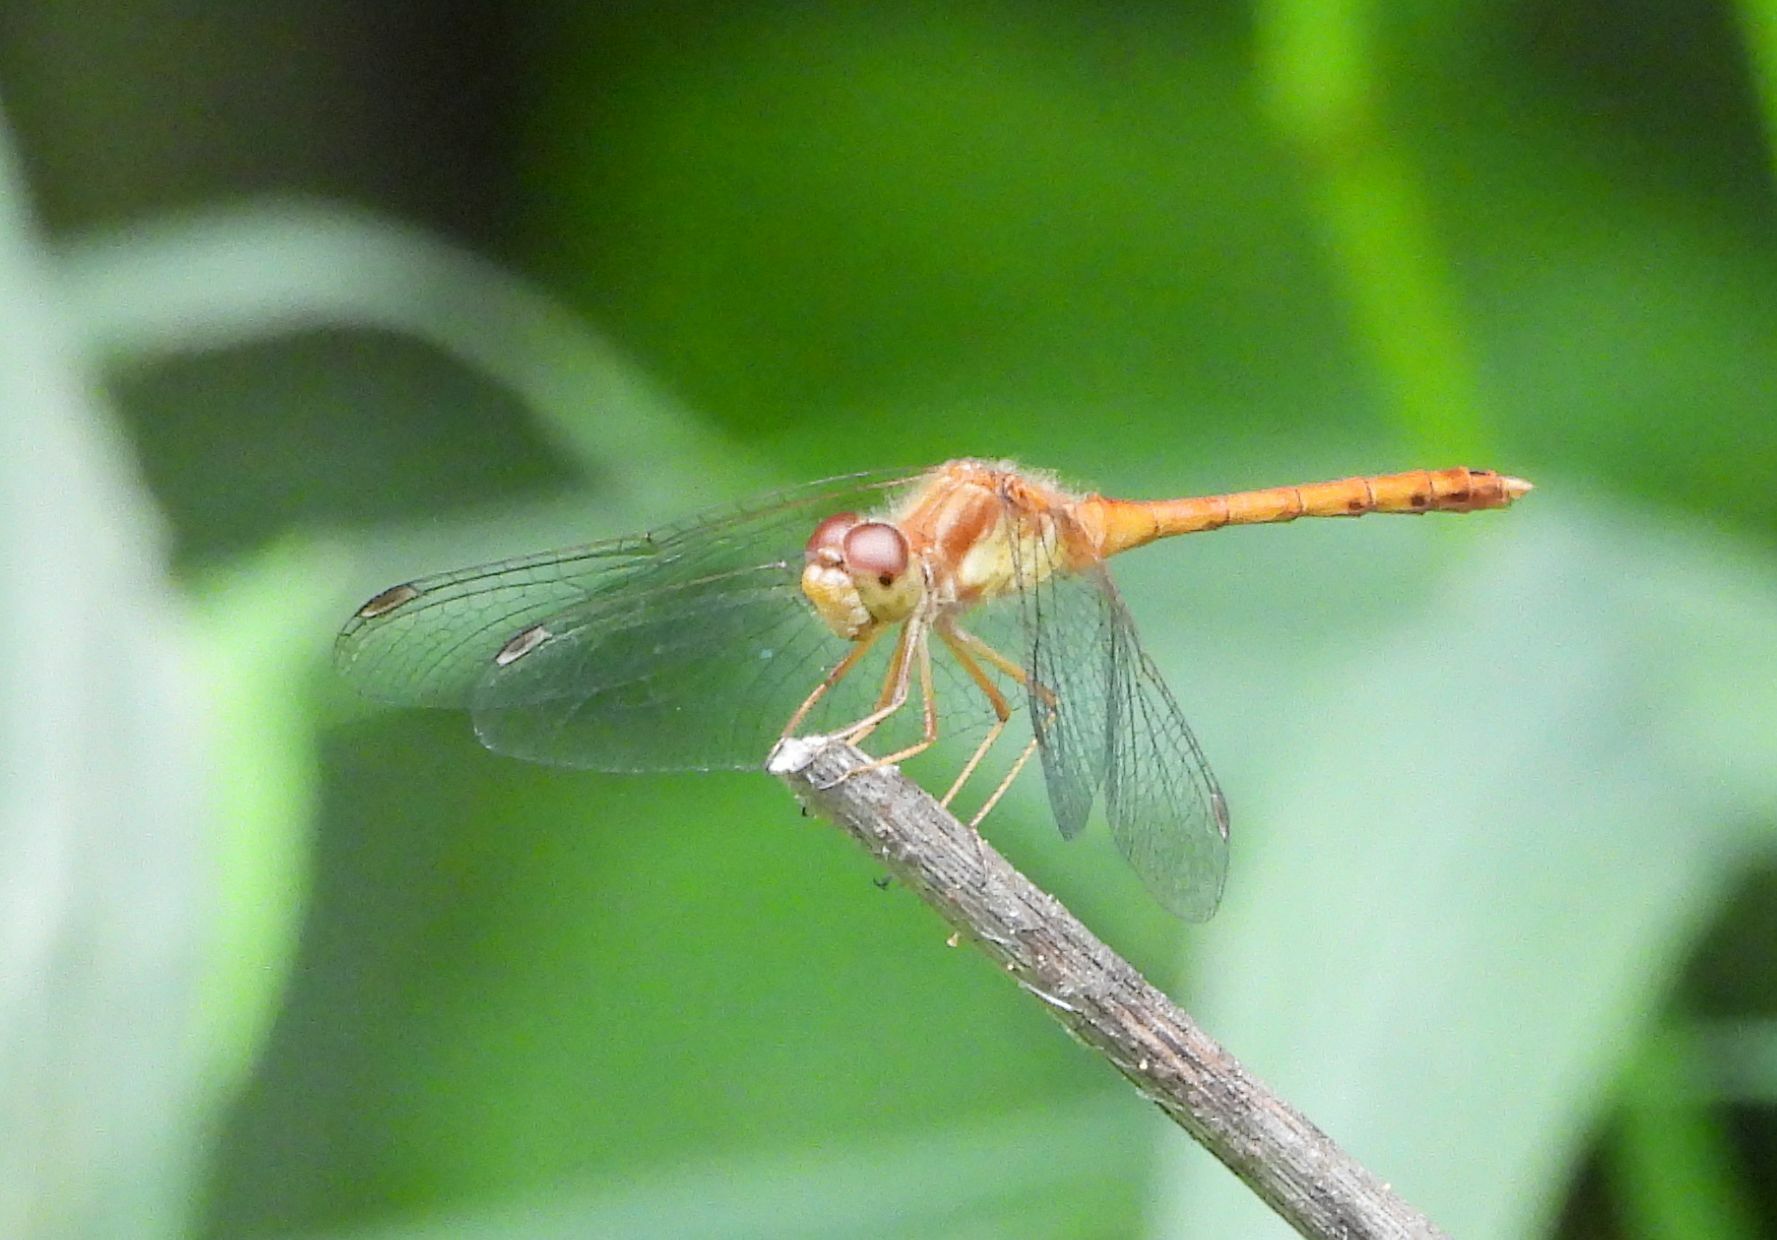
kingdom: Animalia
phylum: Arthropoda
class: Insecta
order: Odonata
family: Libellulidae
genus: Sympetrum
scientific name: Sympetrum vicinum
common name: Autumn meadowhawk
